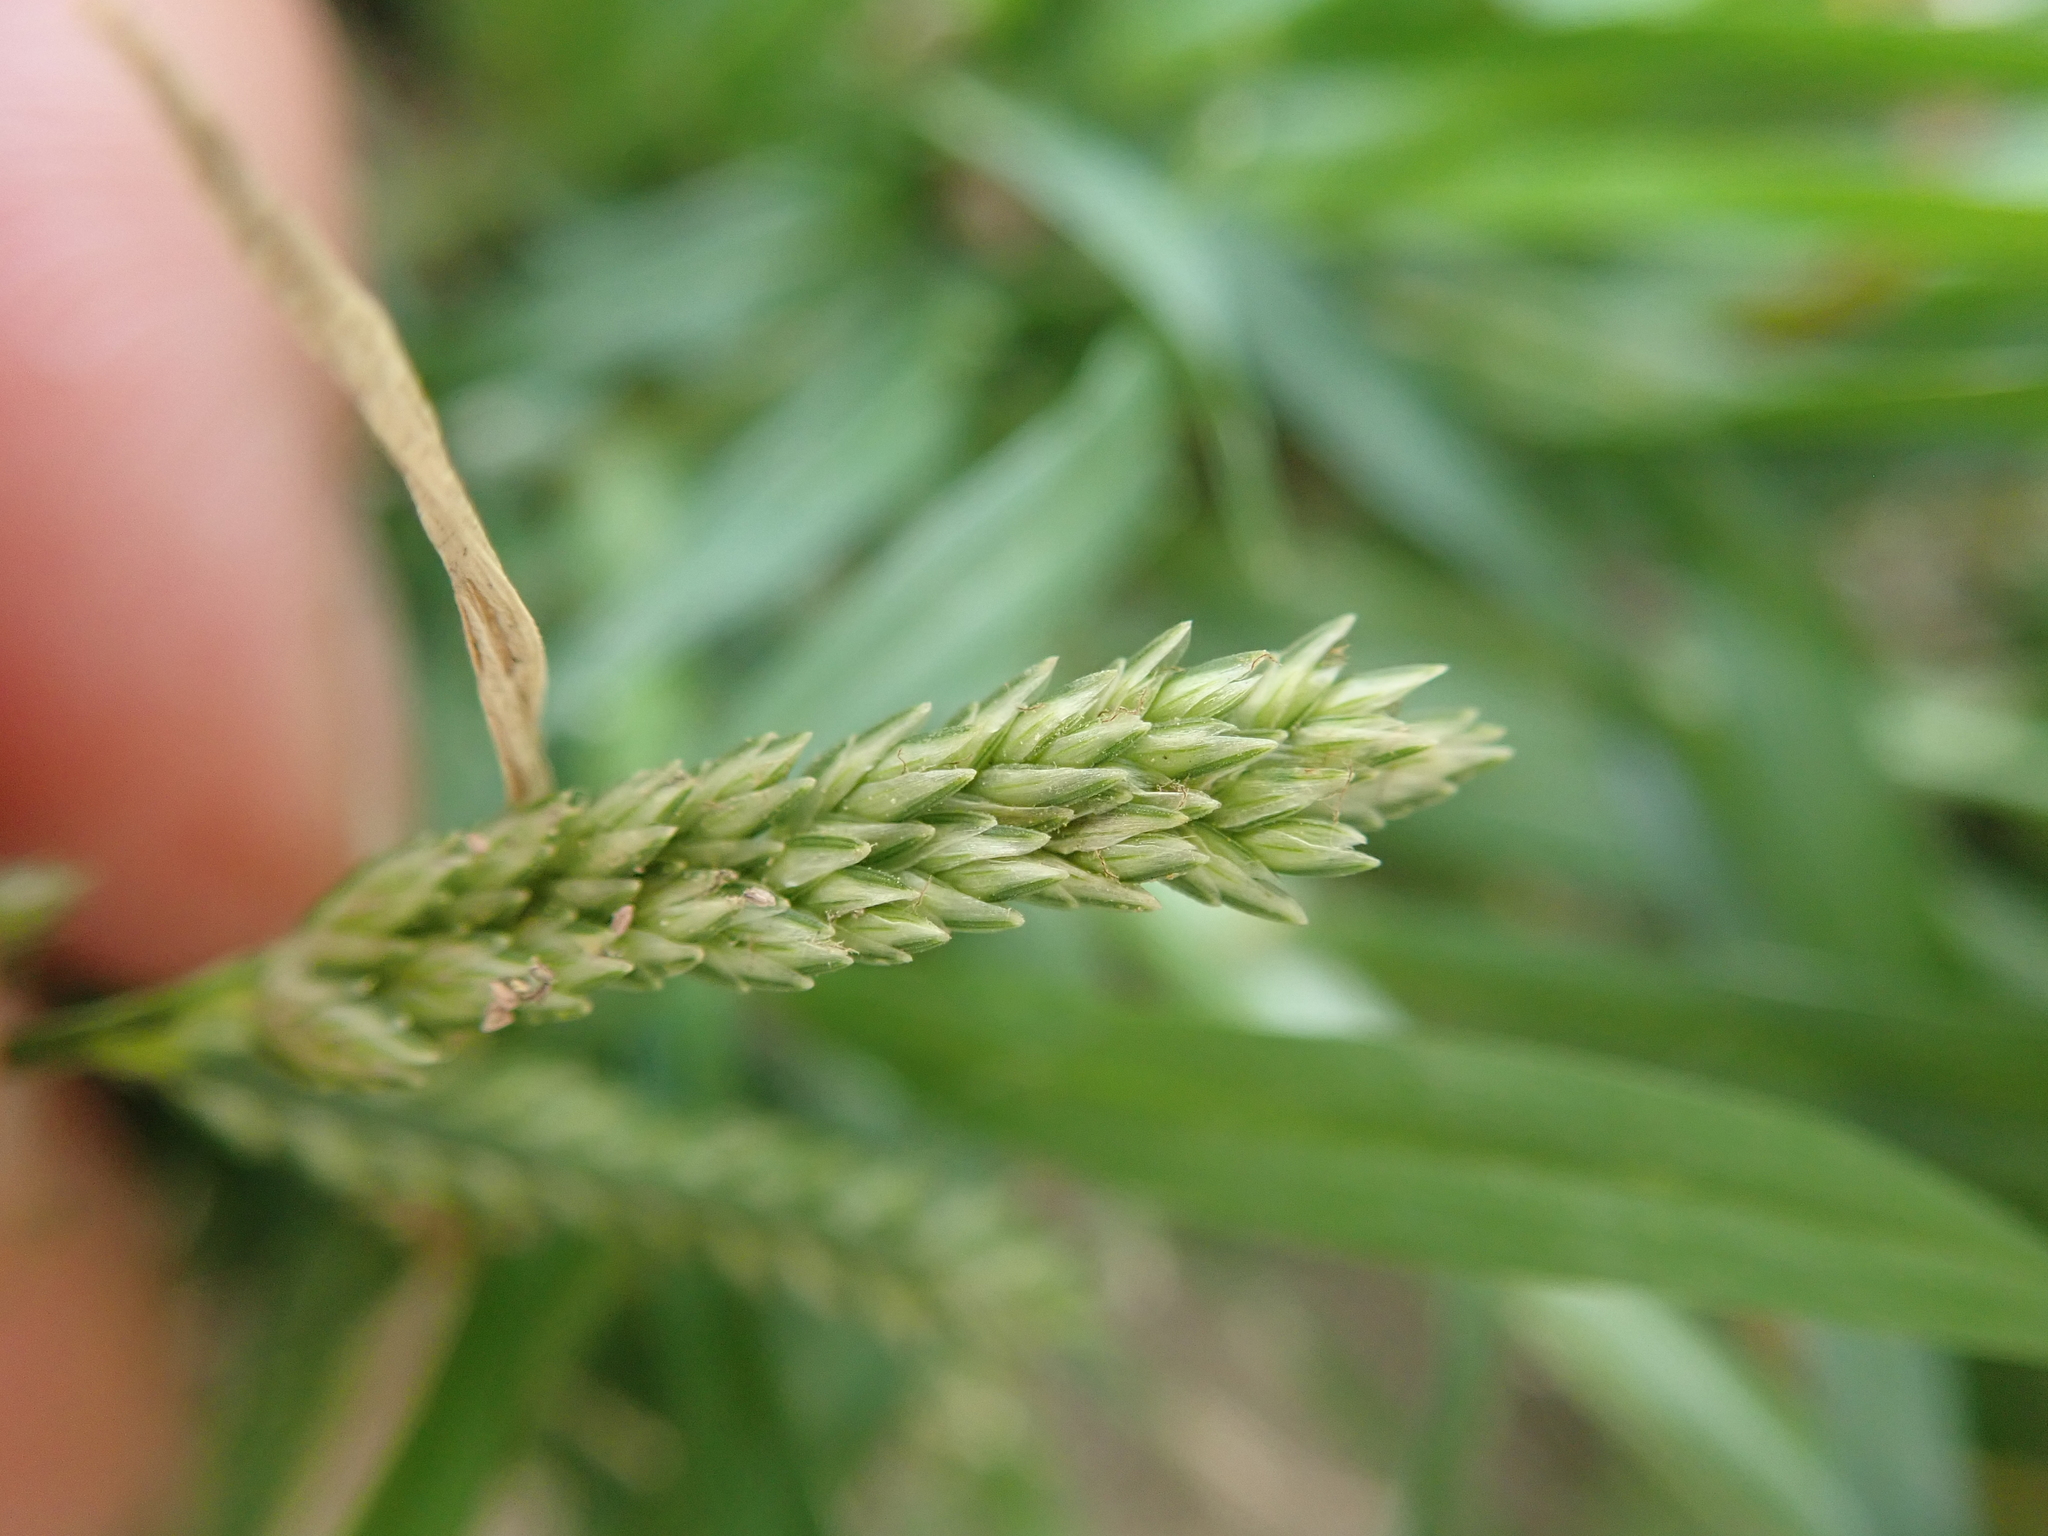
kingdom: Plantae
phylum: Tracheophyta
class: Liliopsida
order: Poales
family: Poaceae
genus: Eleusine
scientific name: Eleusine indica
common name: Yard-grass
